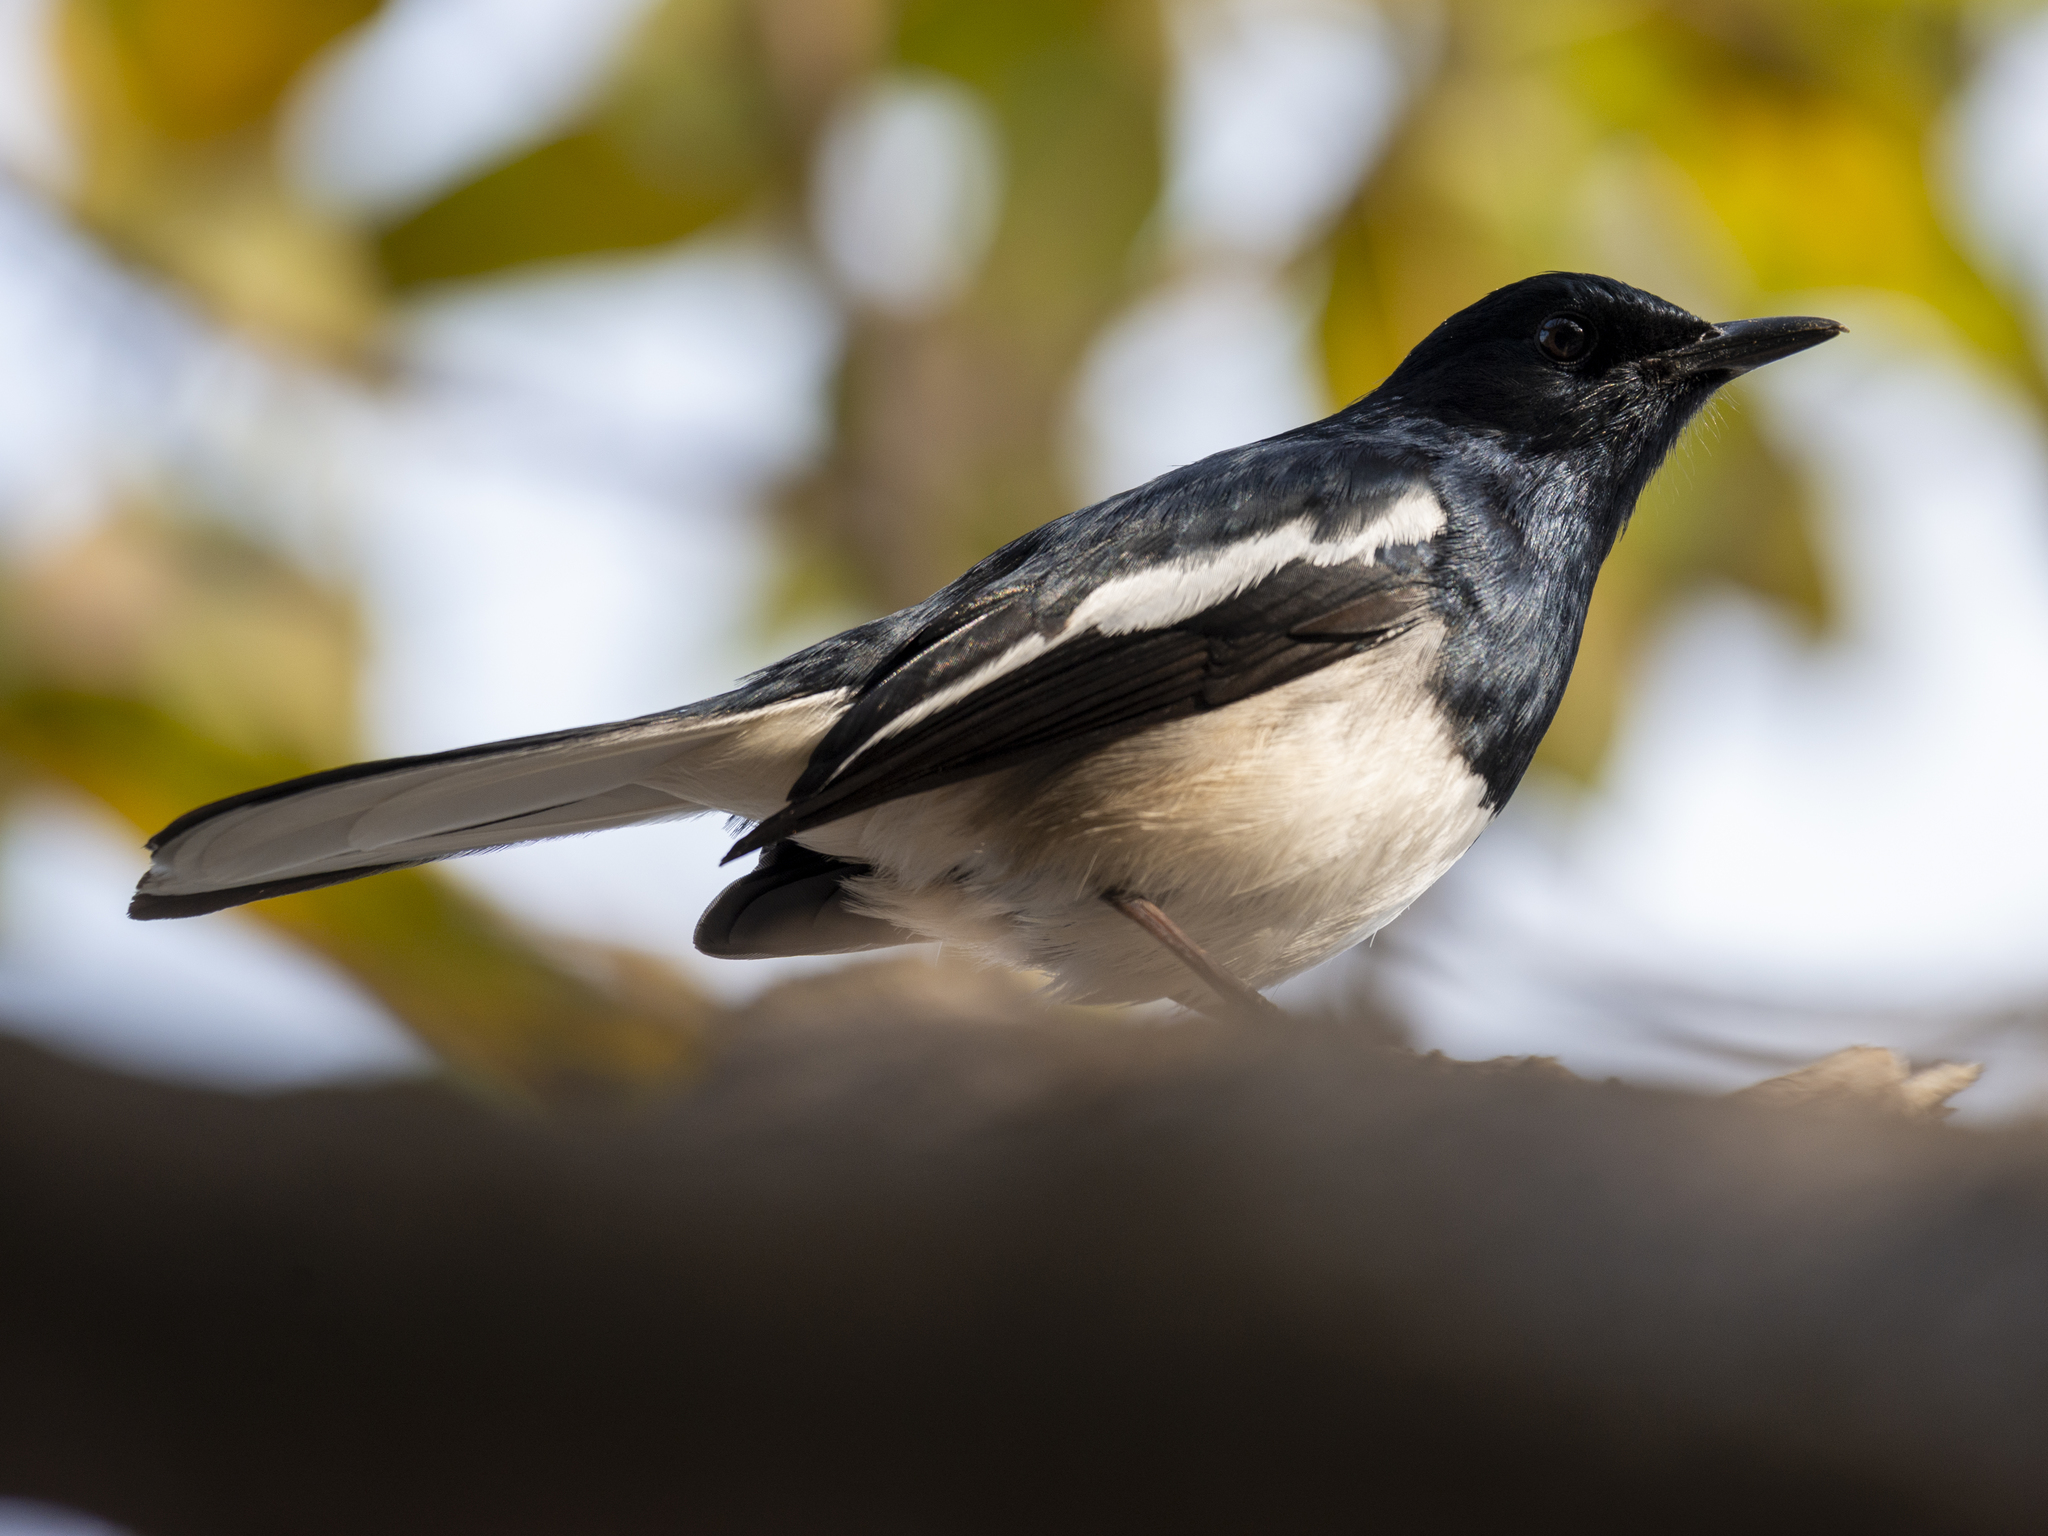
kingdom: Animalia
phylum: Chordata
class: Aves
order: Passeriformes
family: Muscicapidae
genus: Copsychus
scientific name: Copsychus saularis
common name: Oriental magpie-robin
